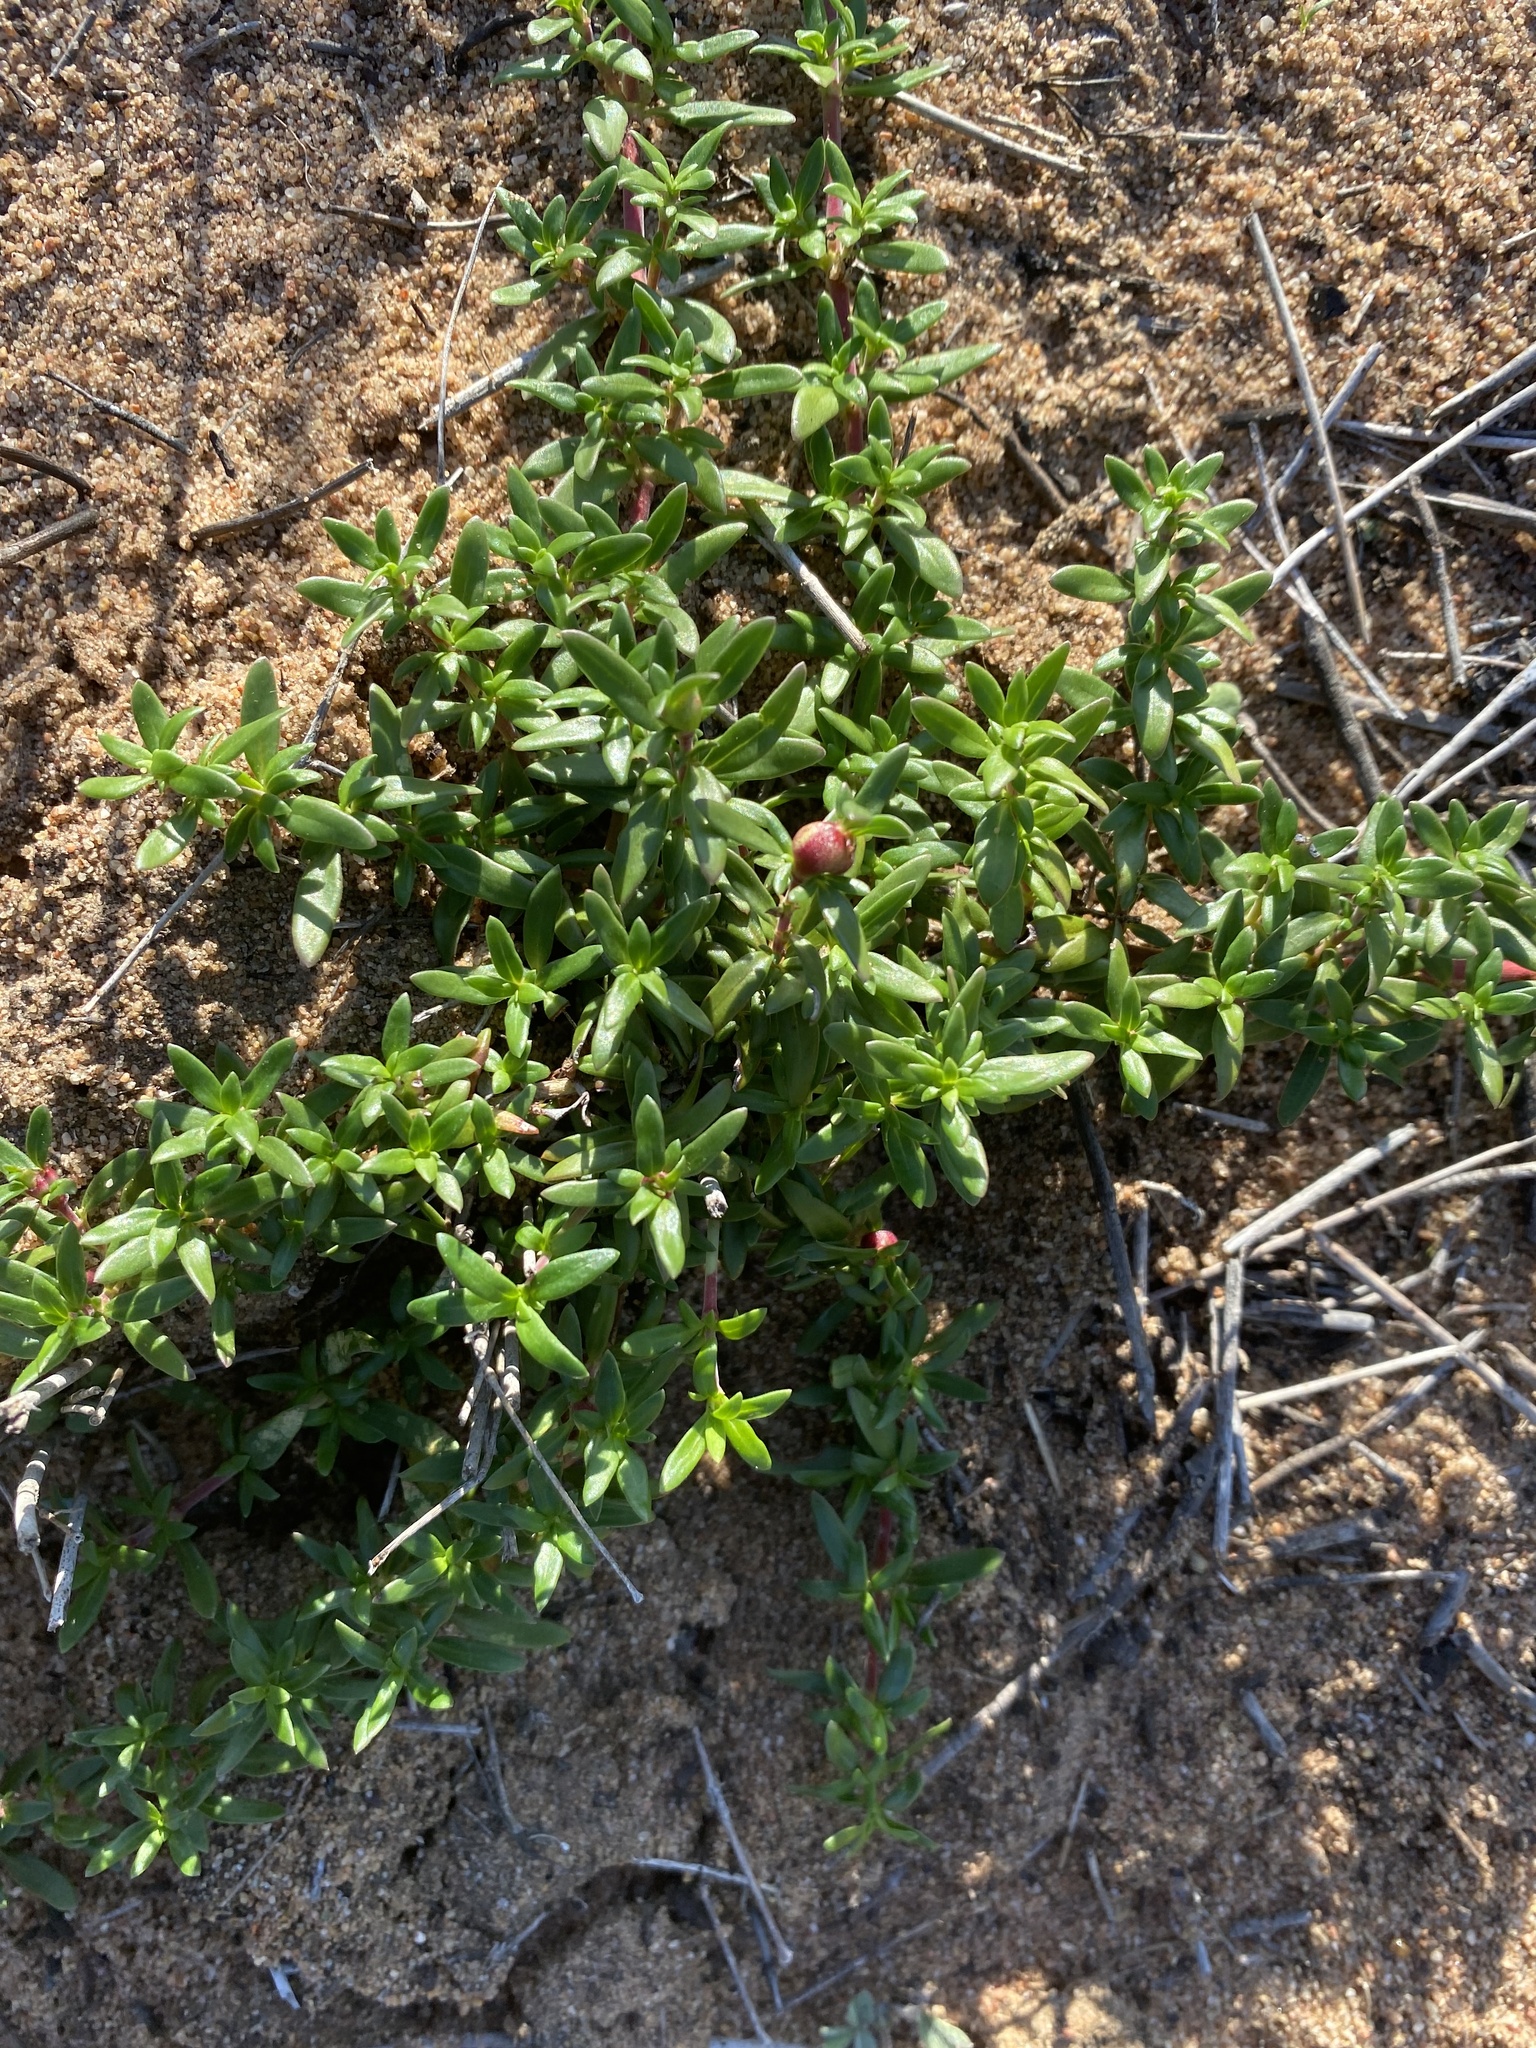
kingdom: Plantae
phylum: Tracheophyta
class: Magnoliopsida
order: Gentianales
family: Rubiaceae
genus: Anthospermum
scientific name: Anthospermum prostratum
